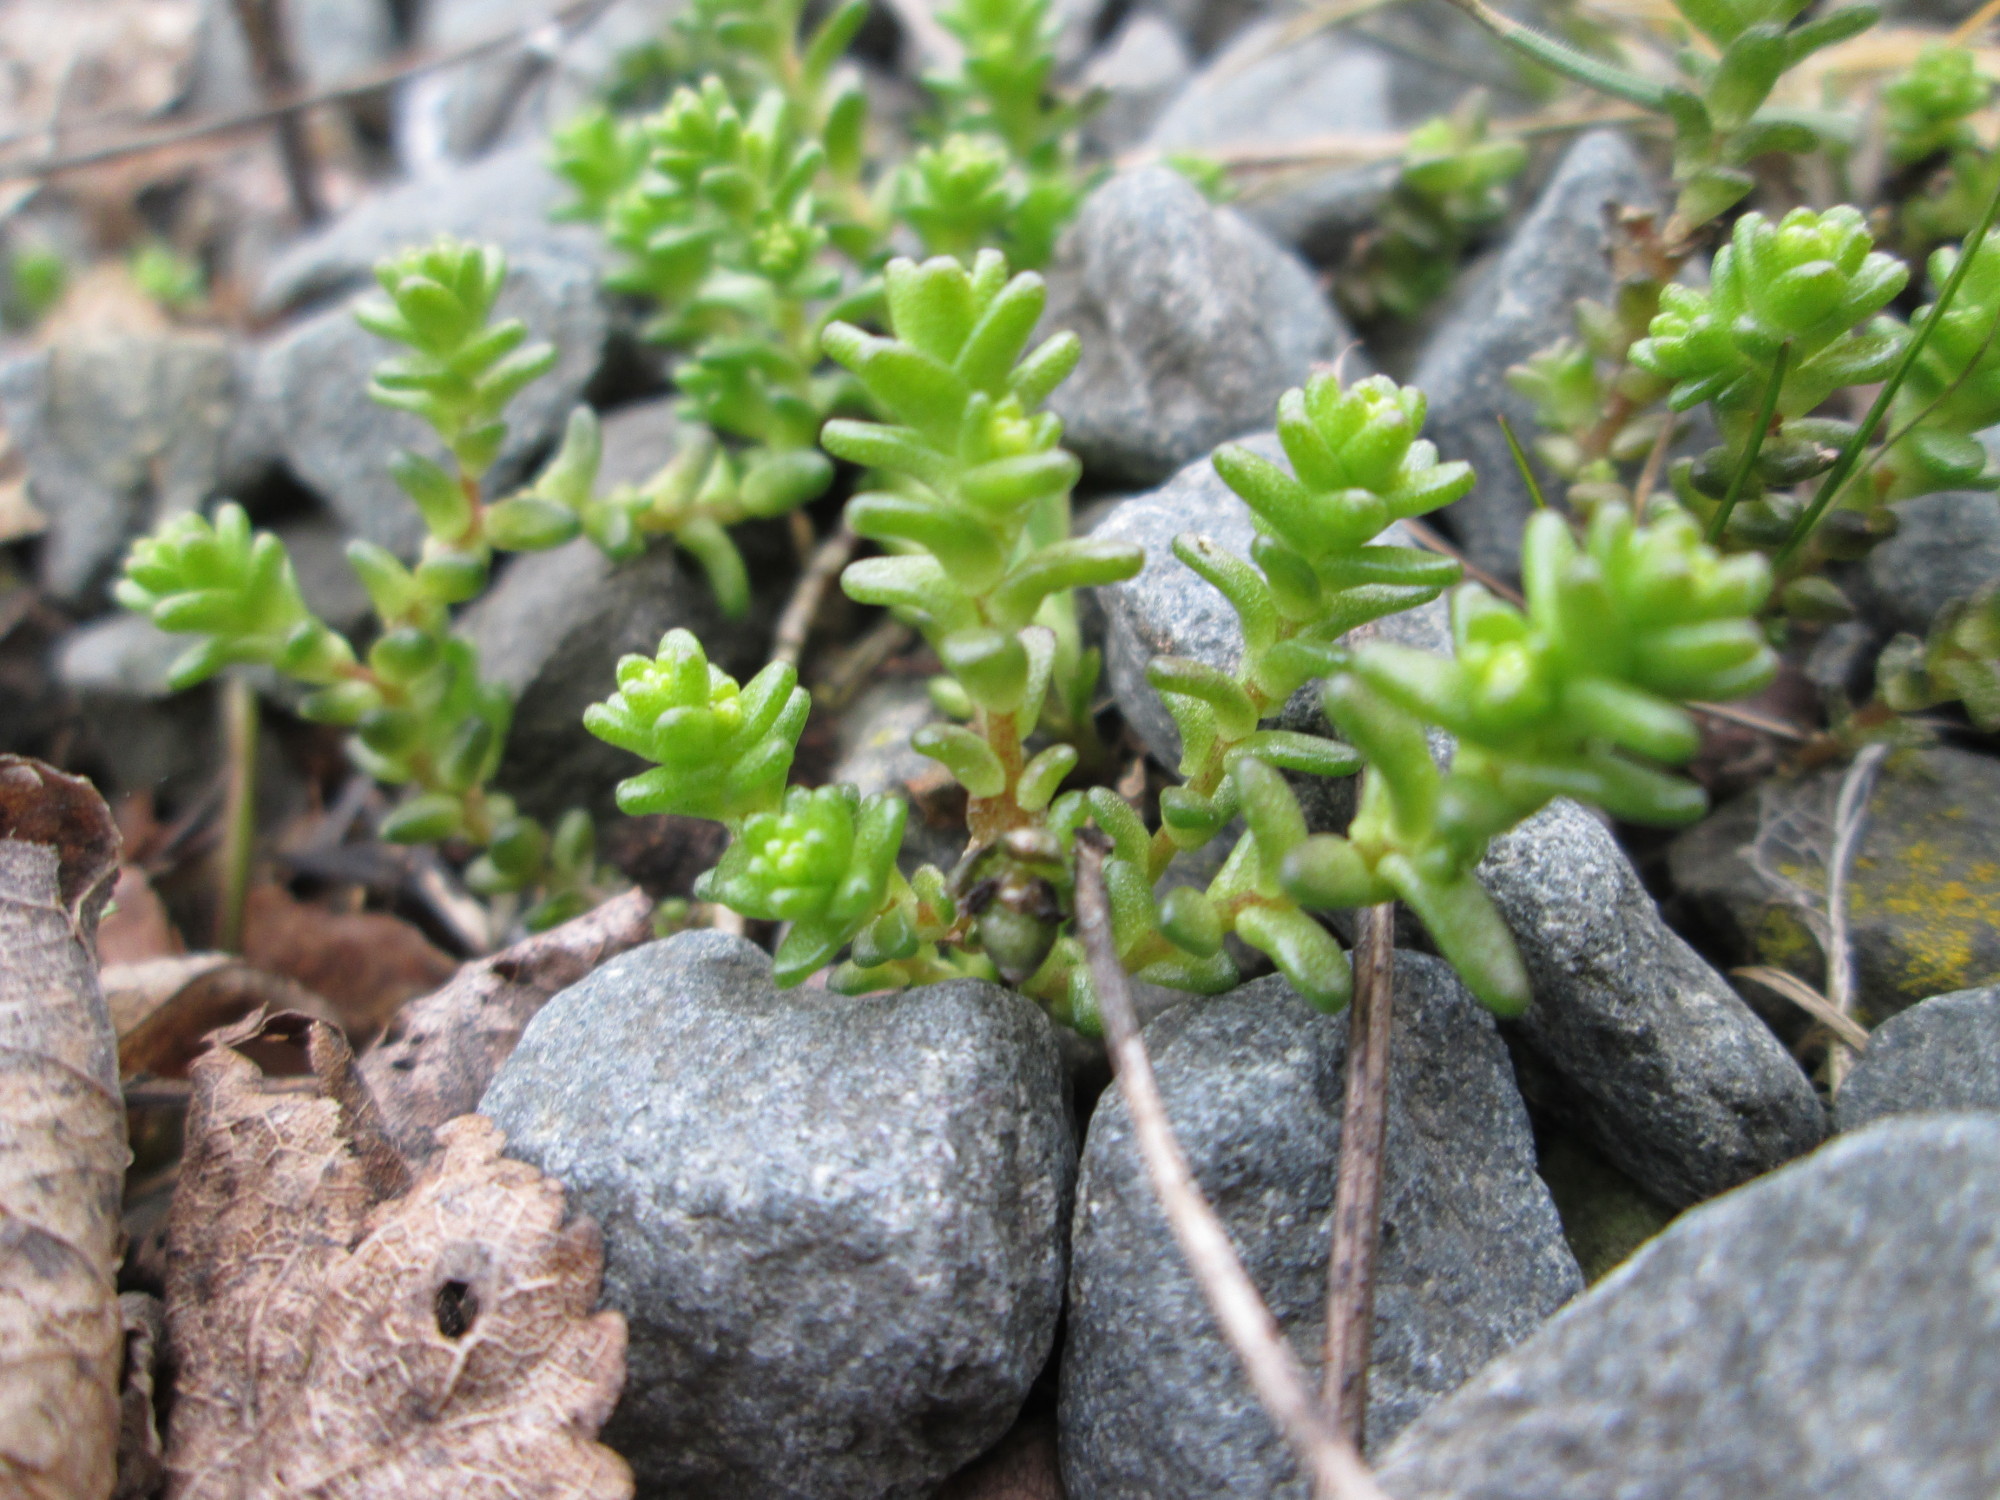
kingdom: Plantae
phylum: Tracheophyta
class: Magnoliopsida
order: Saxifragales
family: Crassulaceae
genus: Sedum
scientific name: Sedum acre
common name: Biting stonecrop
